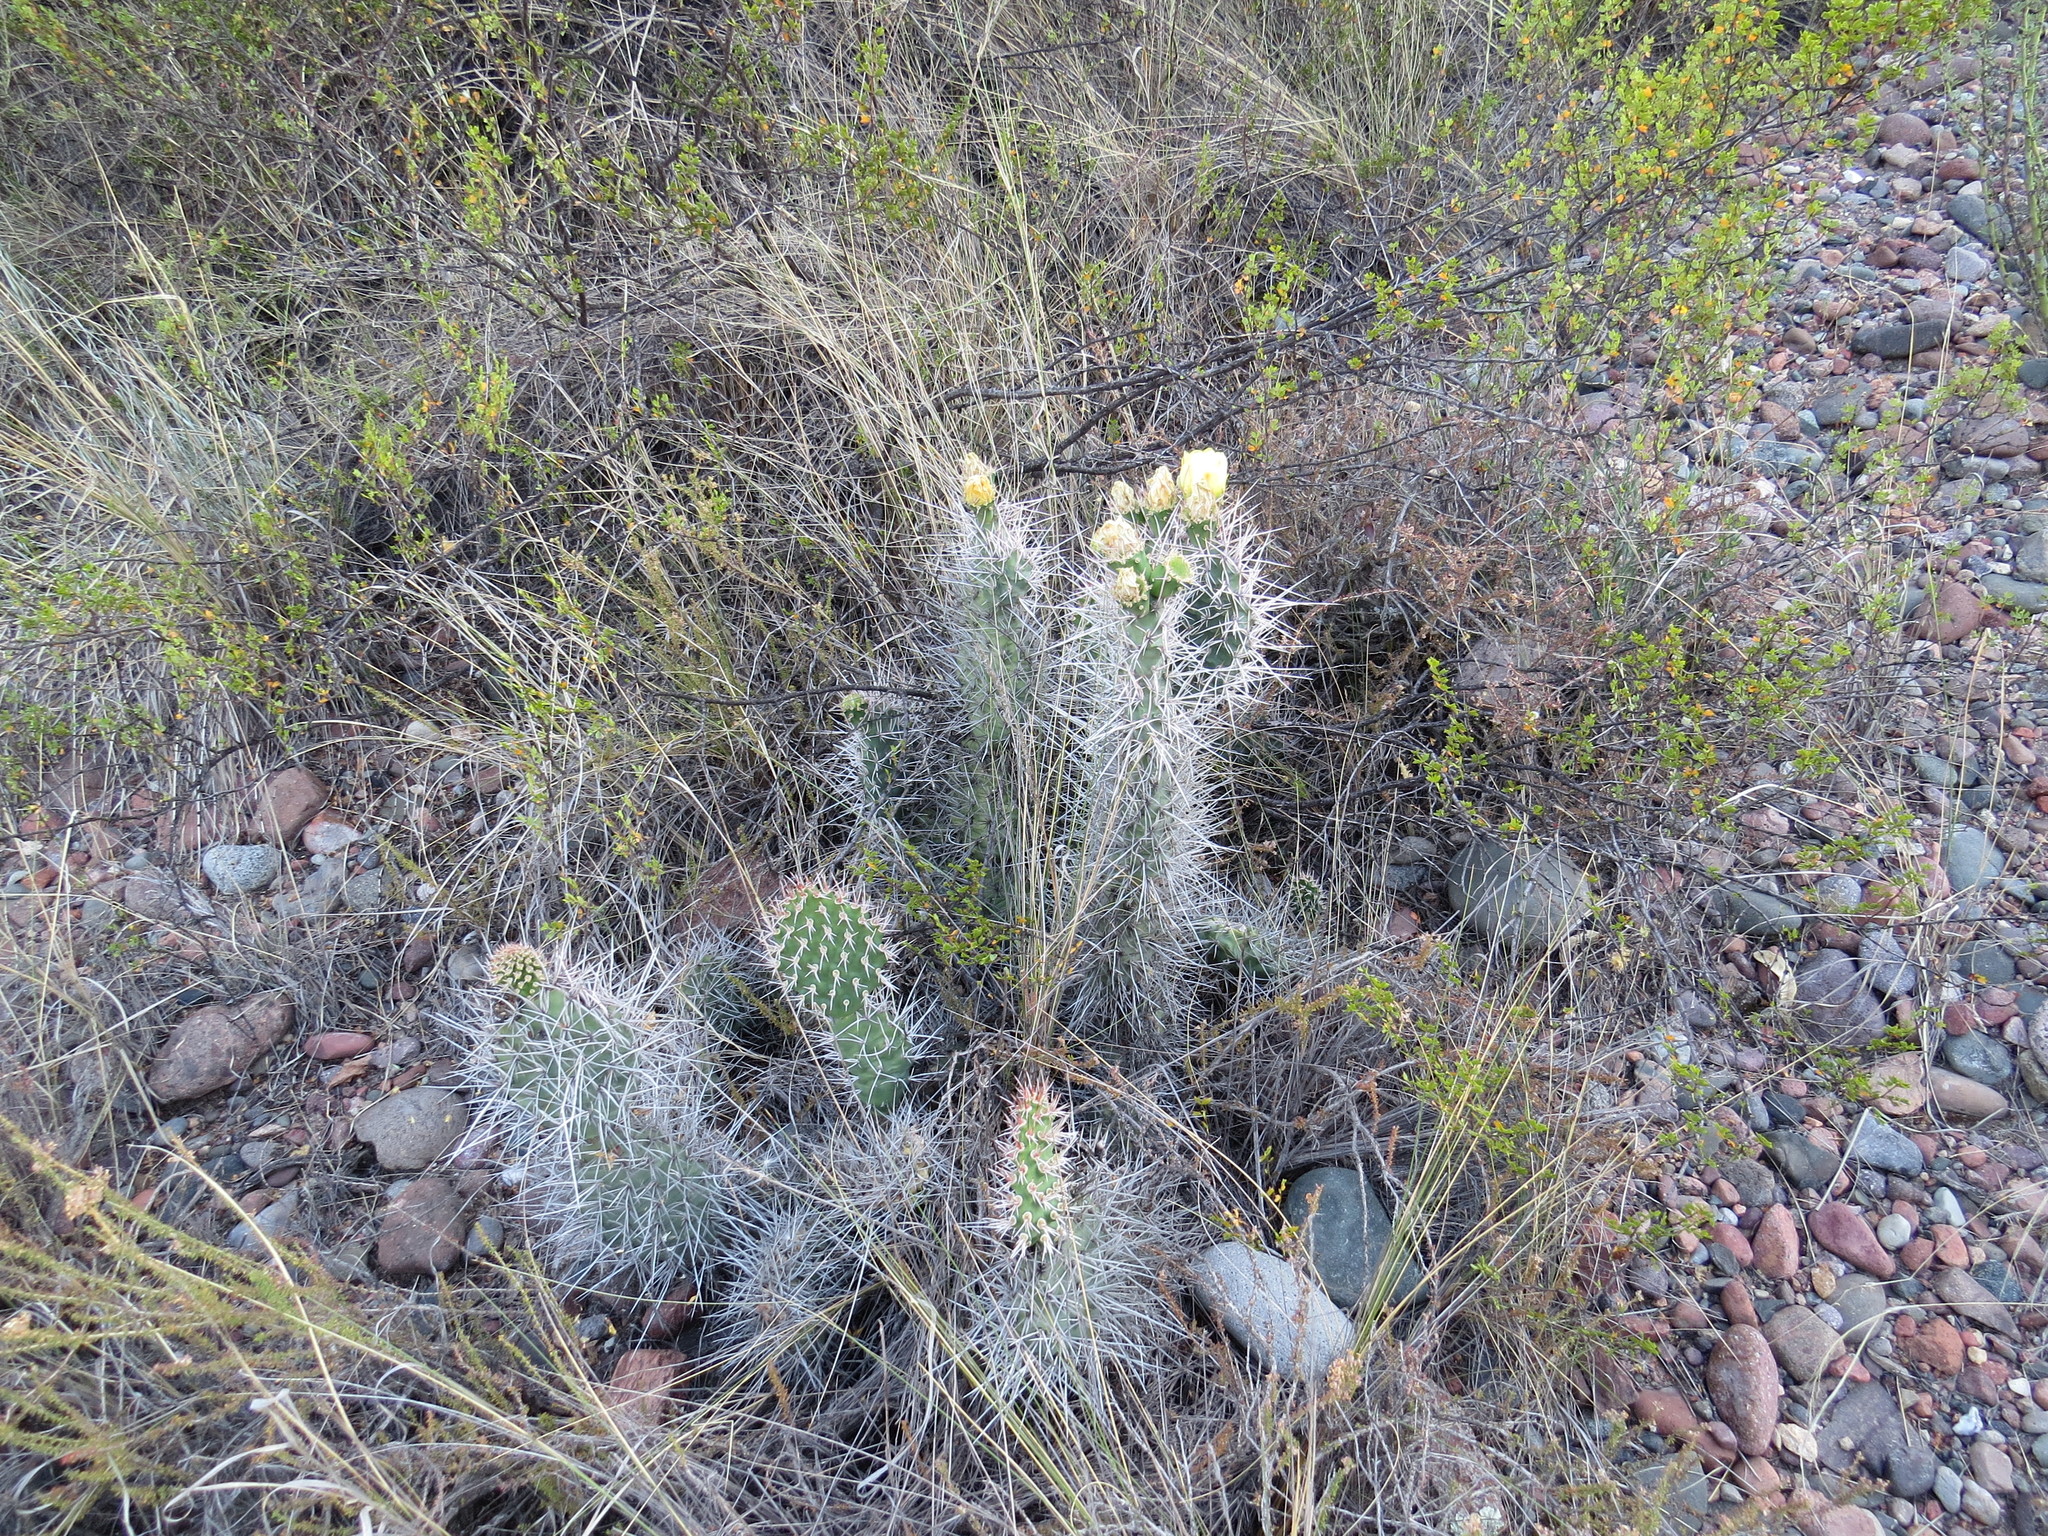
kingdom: Plantae
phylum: Tracheophyta
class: Magnoliopsida
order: Caryophyllales
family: Cactaceae
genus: Opuntia
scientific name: Opuntia sulphurea
